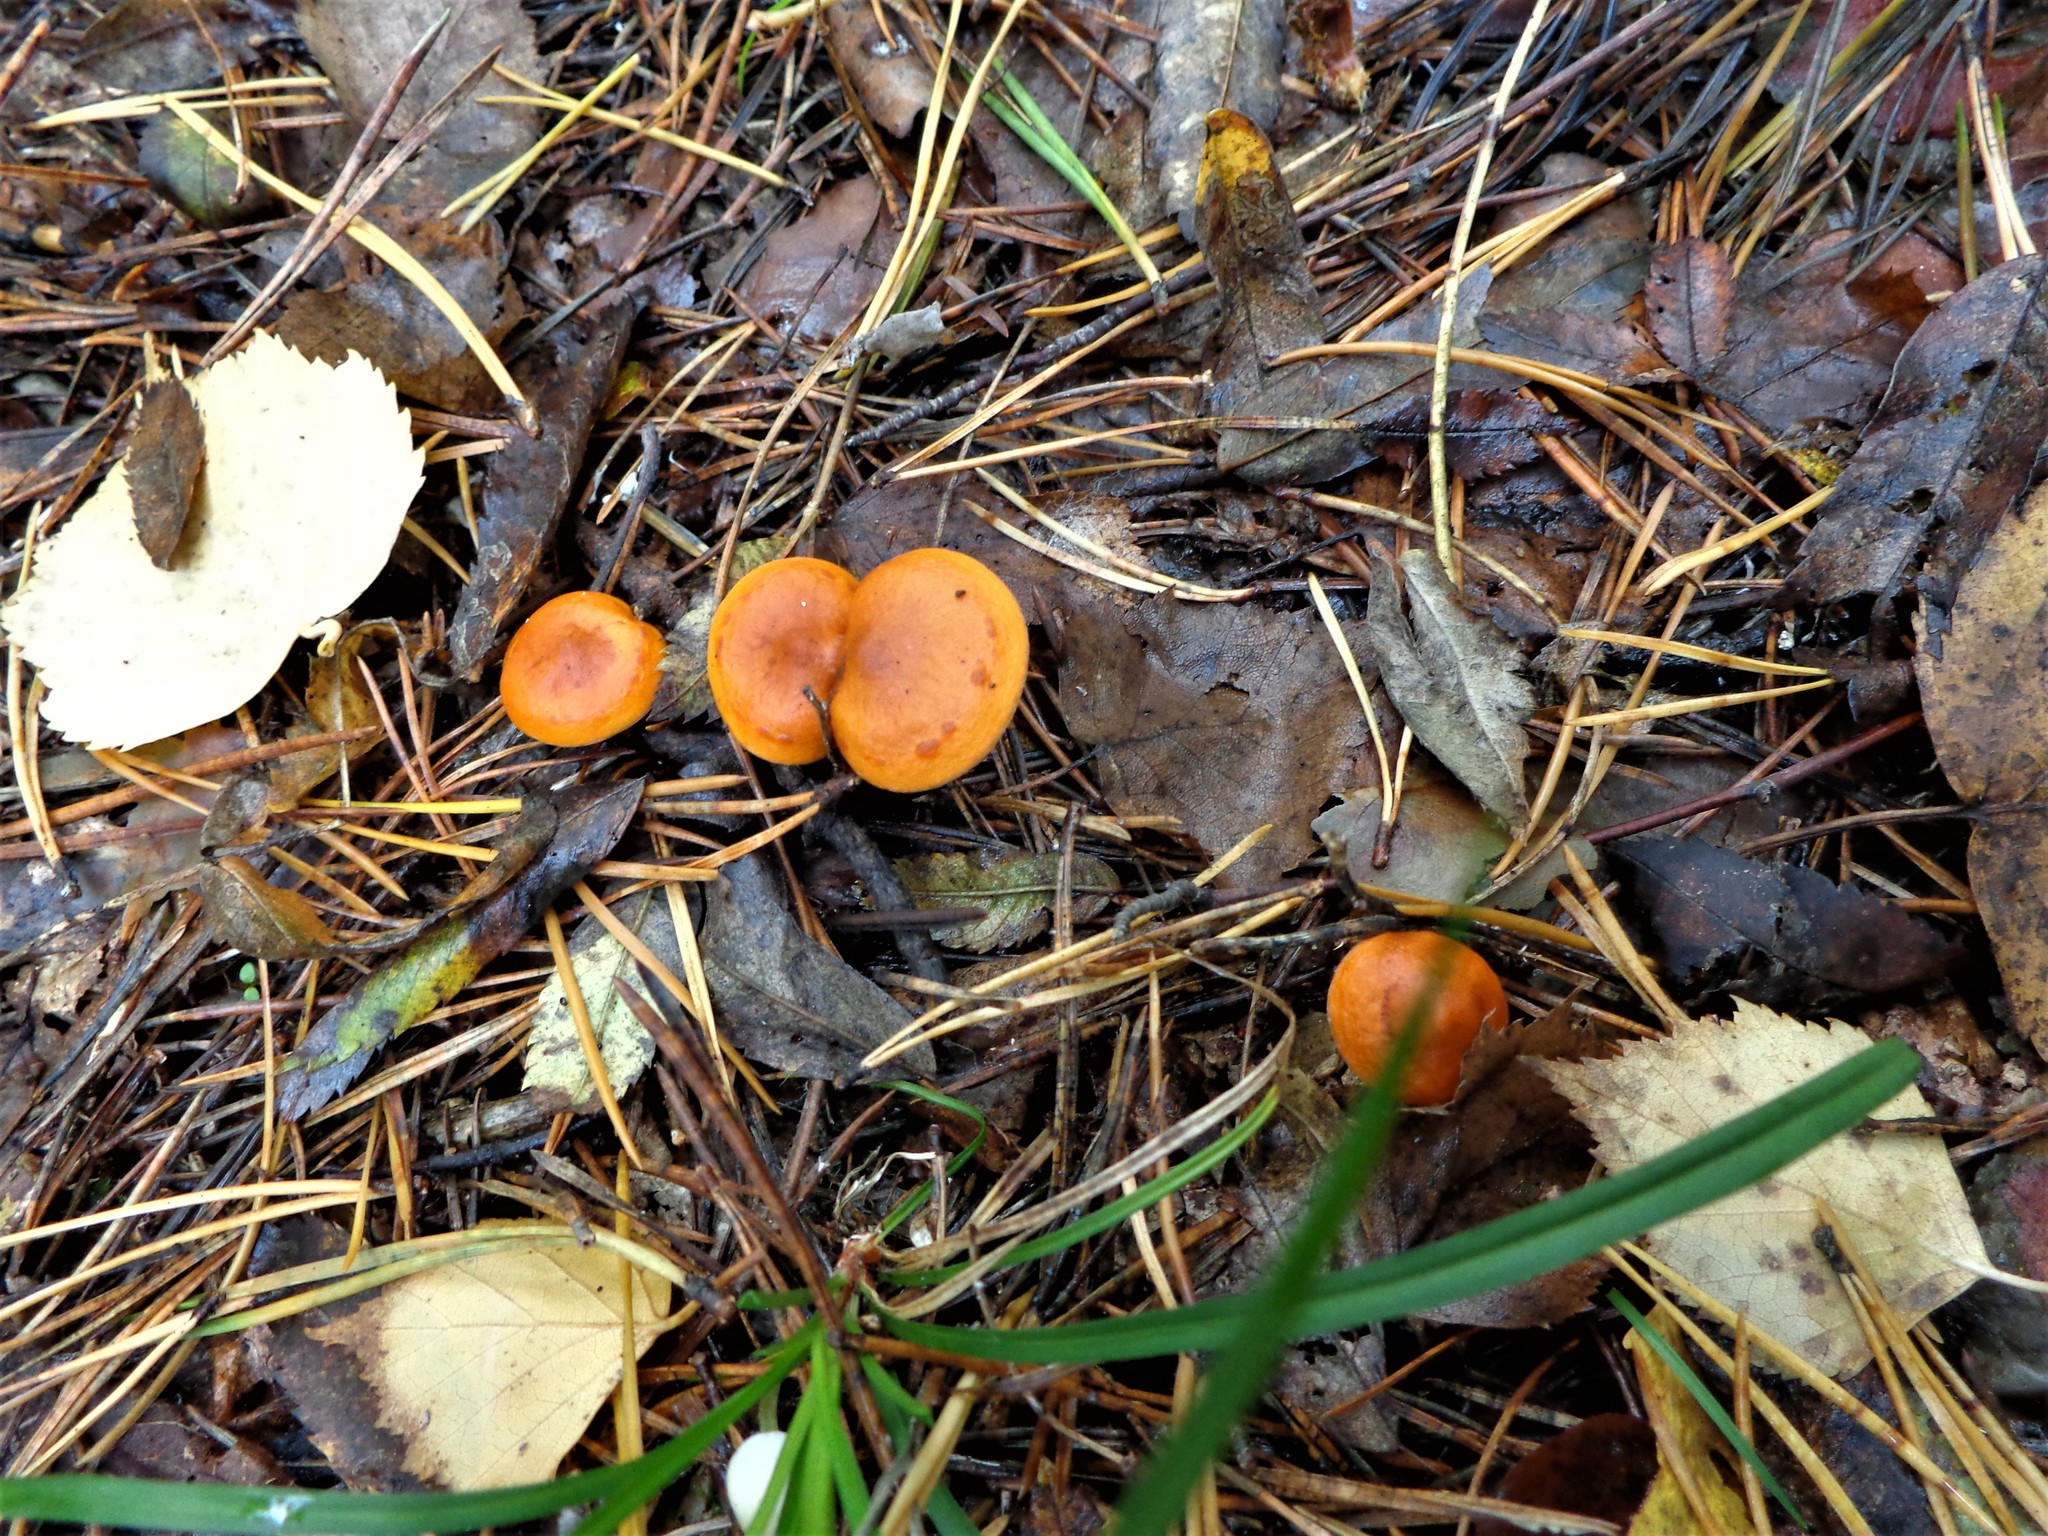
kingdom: Fungi
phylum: Basidiomycota
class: Agaricomycetes
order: Russulales
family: Russulaceae
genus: Lactarius
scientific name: Lactarius aurantiacus
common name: Orange milkcap
